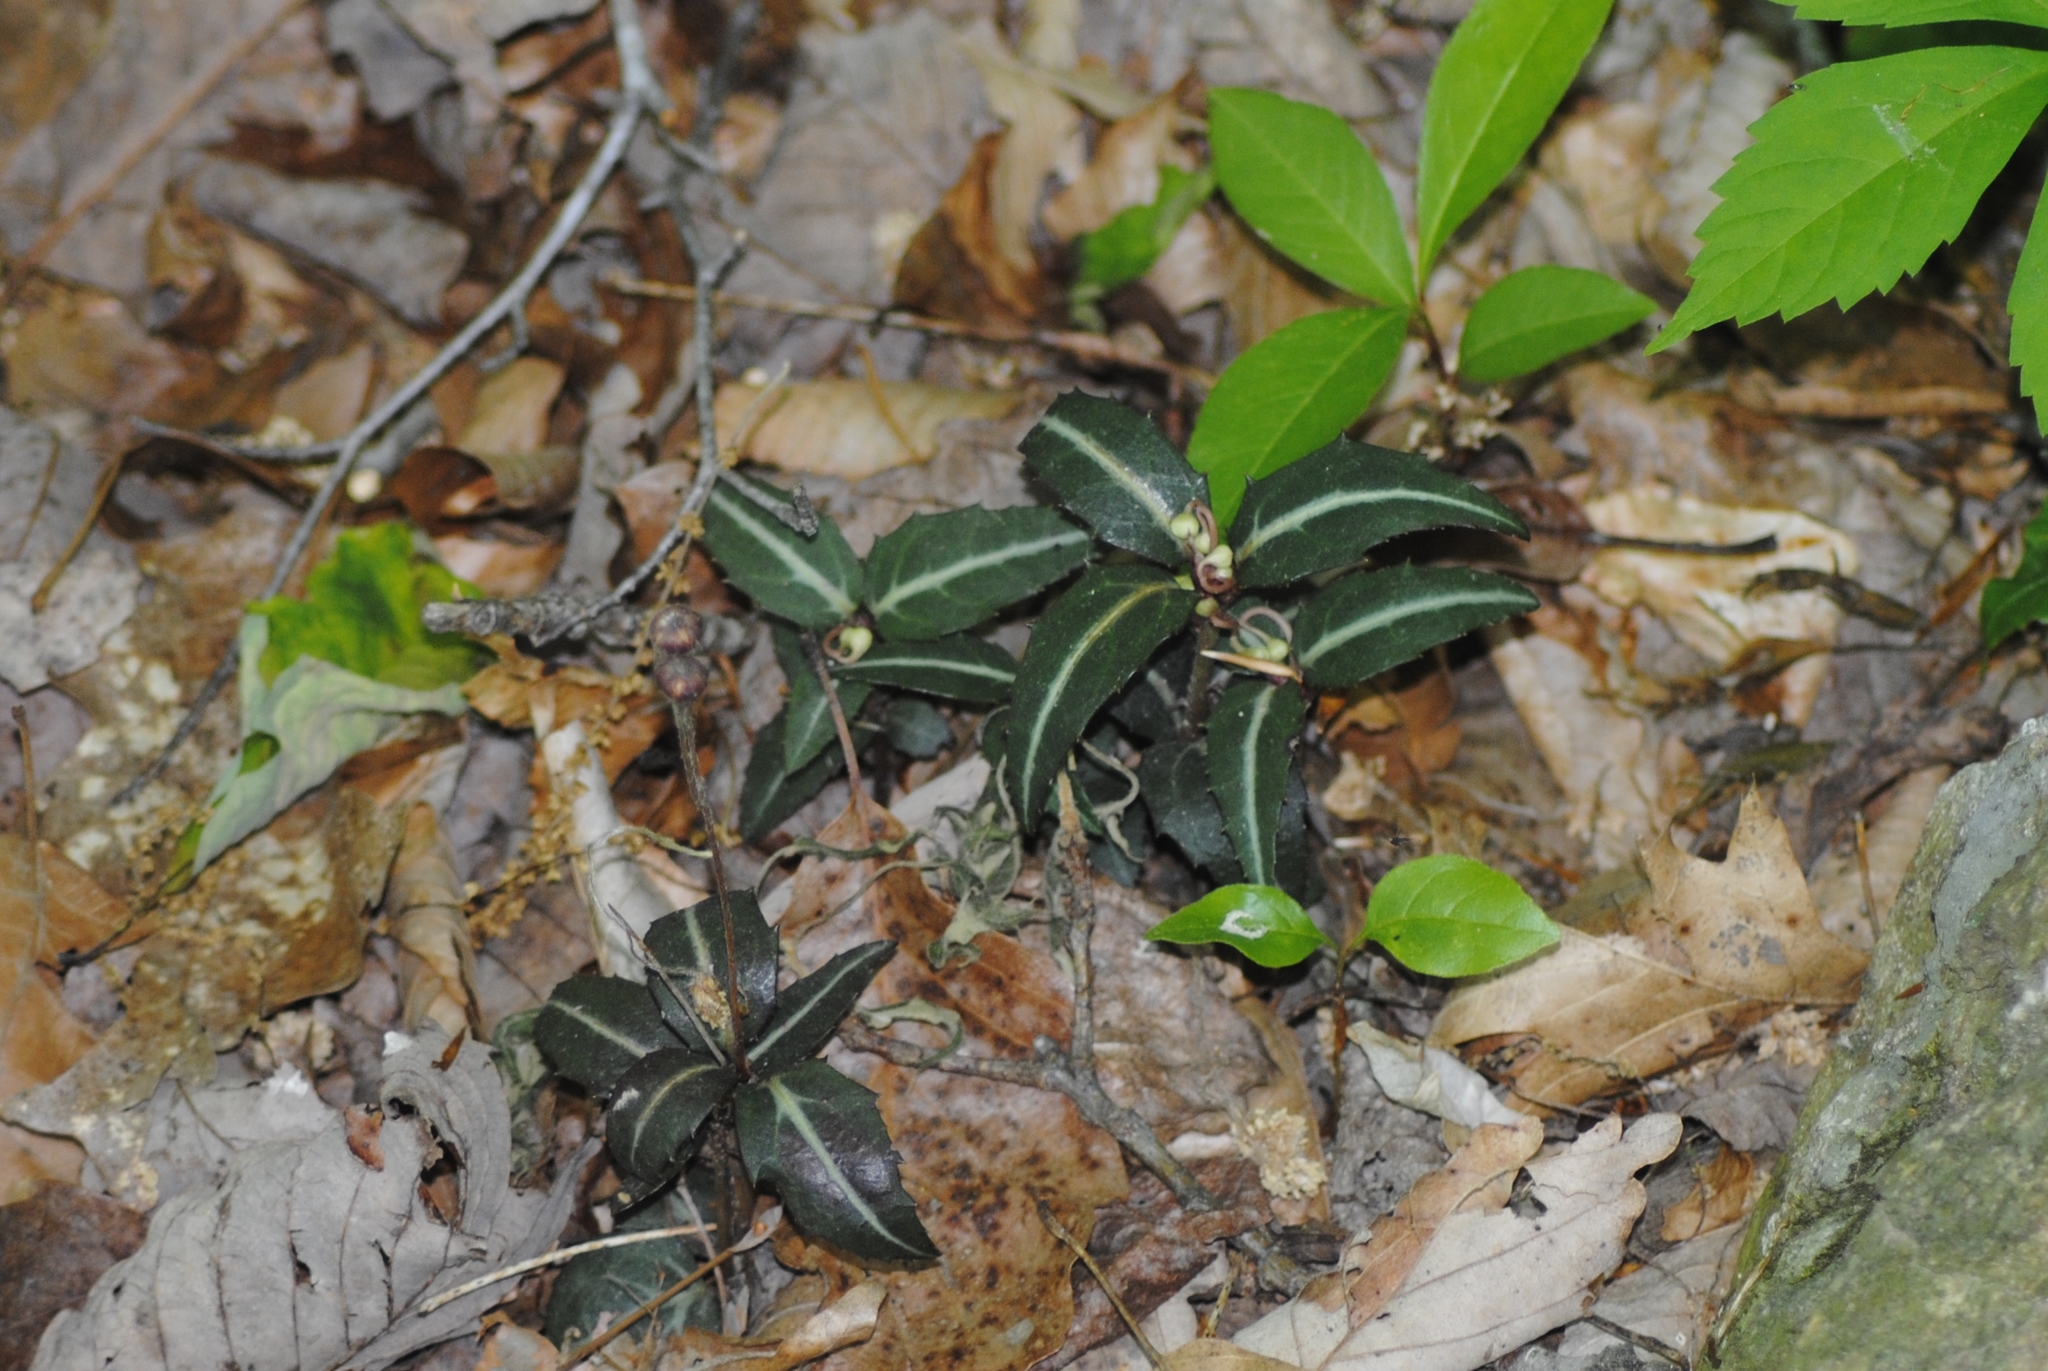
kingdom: Plantae
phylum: Tracheophyta
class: Magnoliopsida
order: Ericales
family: Ericaceae
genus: Chimaphila
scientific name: Chimaphila maculata
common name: Spotted pipsissewa
